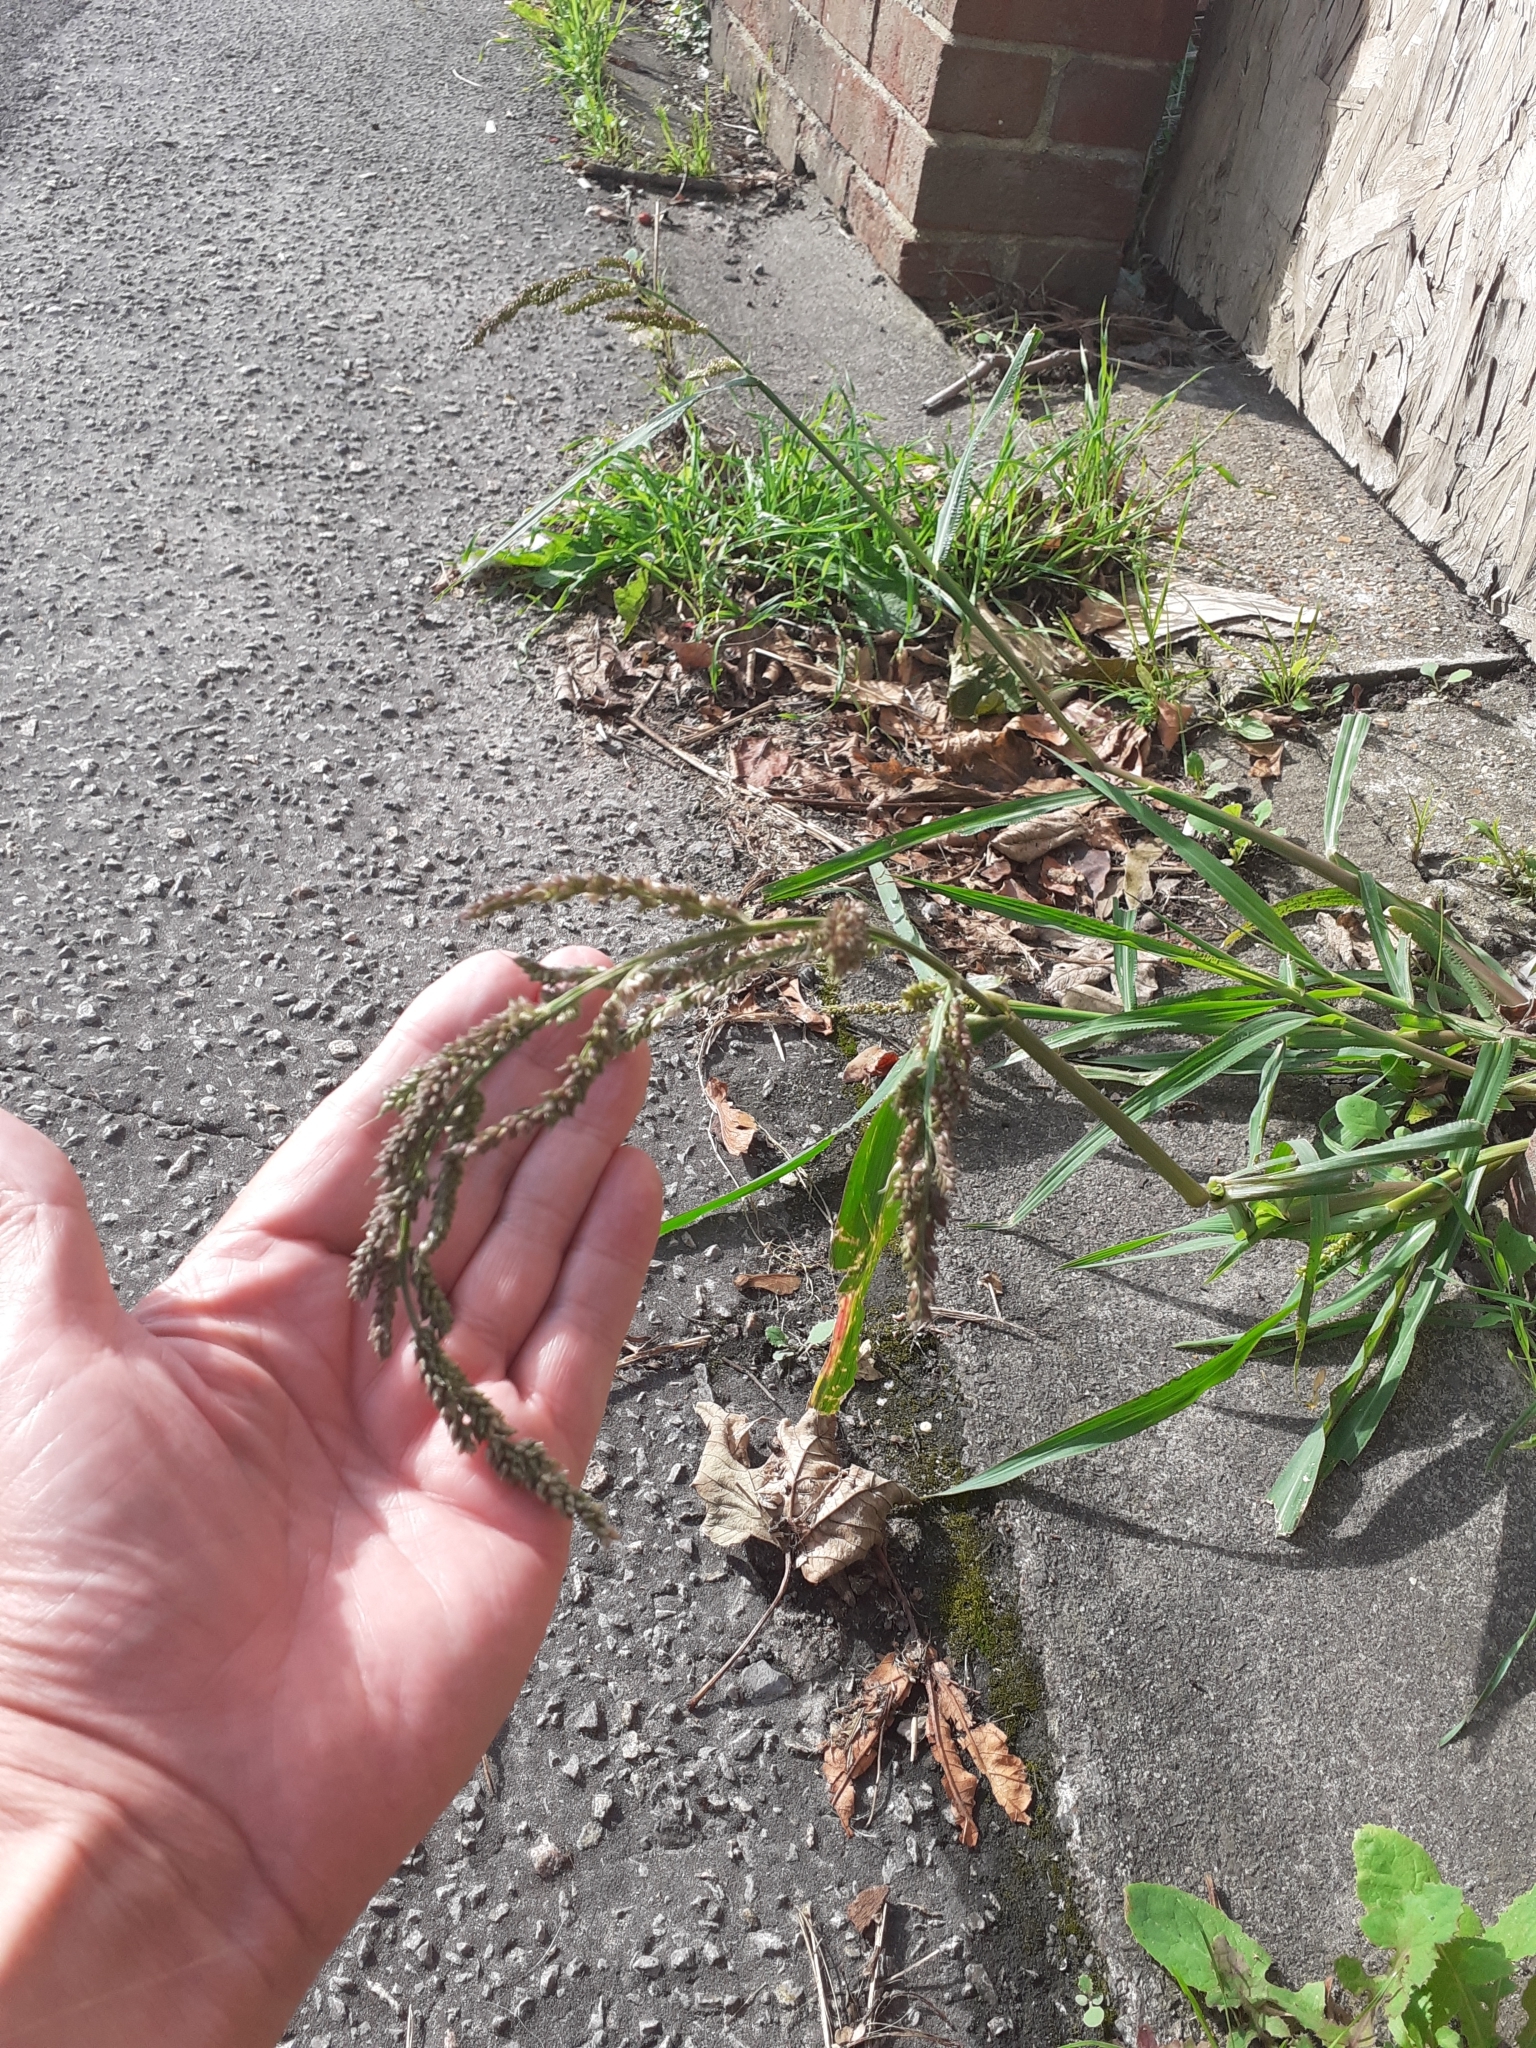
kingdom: Plantae
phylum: Tracheophyta
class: Liliopsida
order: Poales
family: Poaceae
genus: Echinochloa
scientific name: Echinochloa crus-galli
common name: Cockspur
